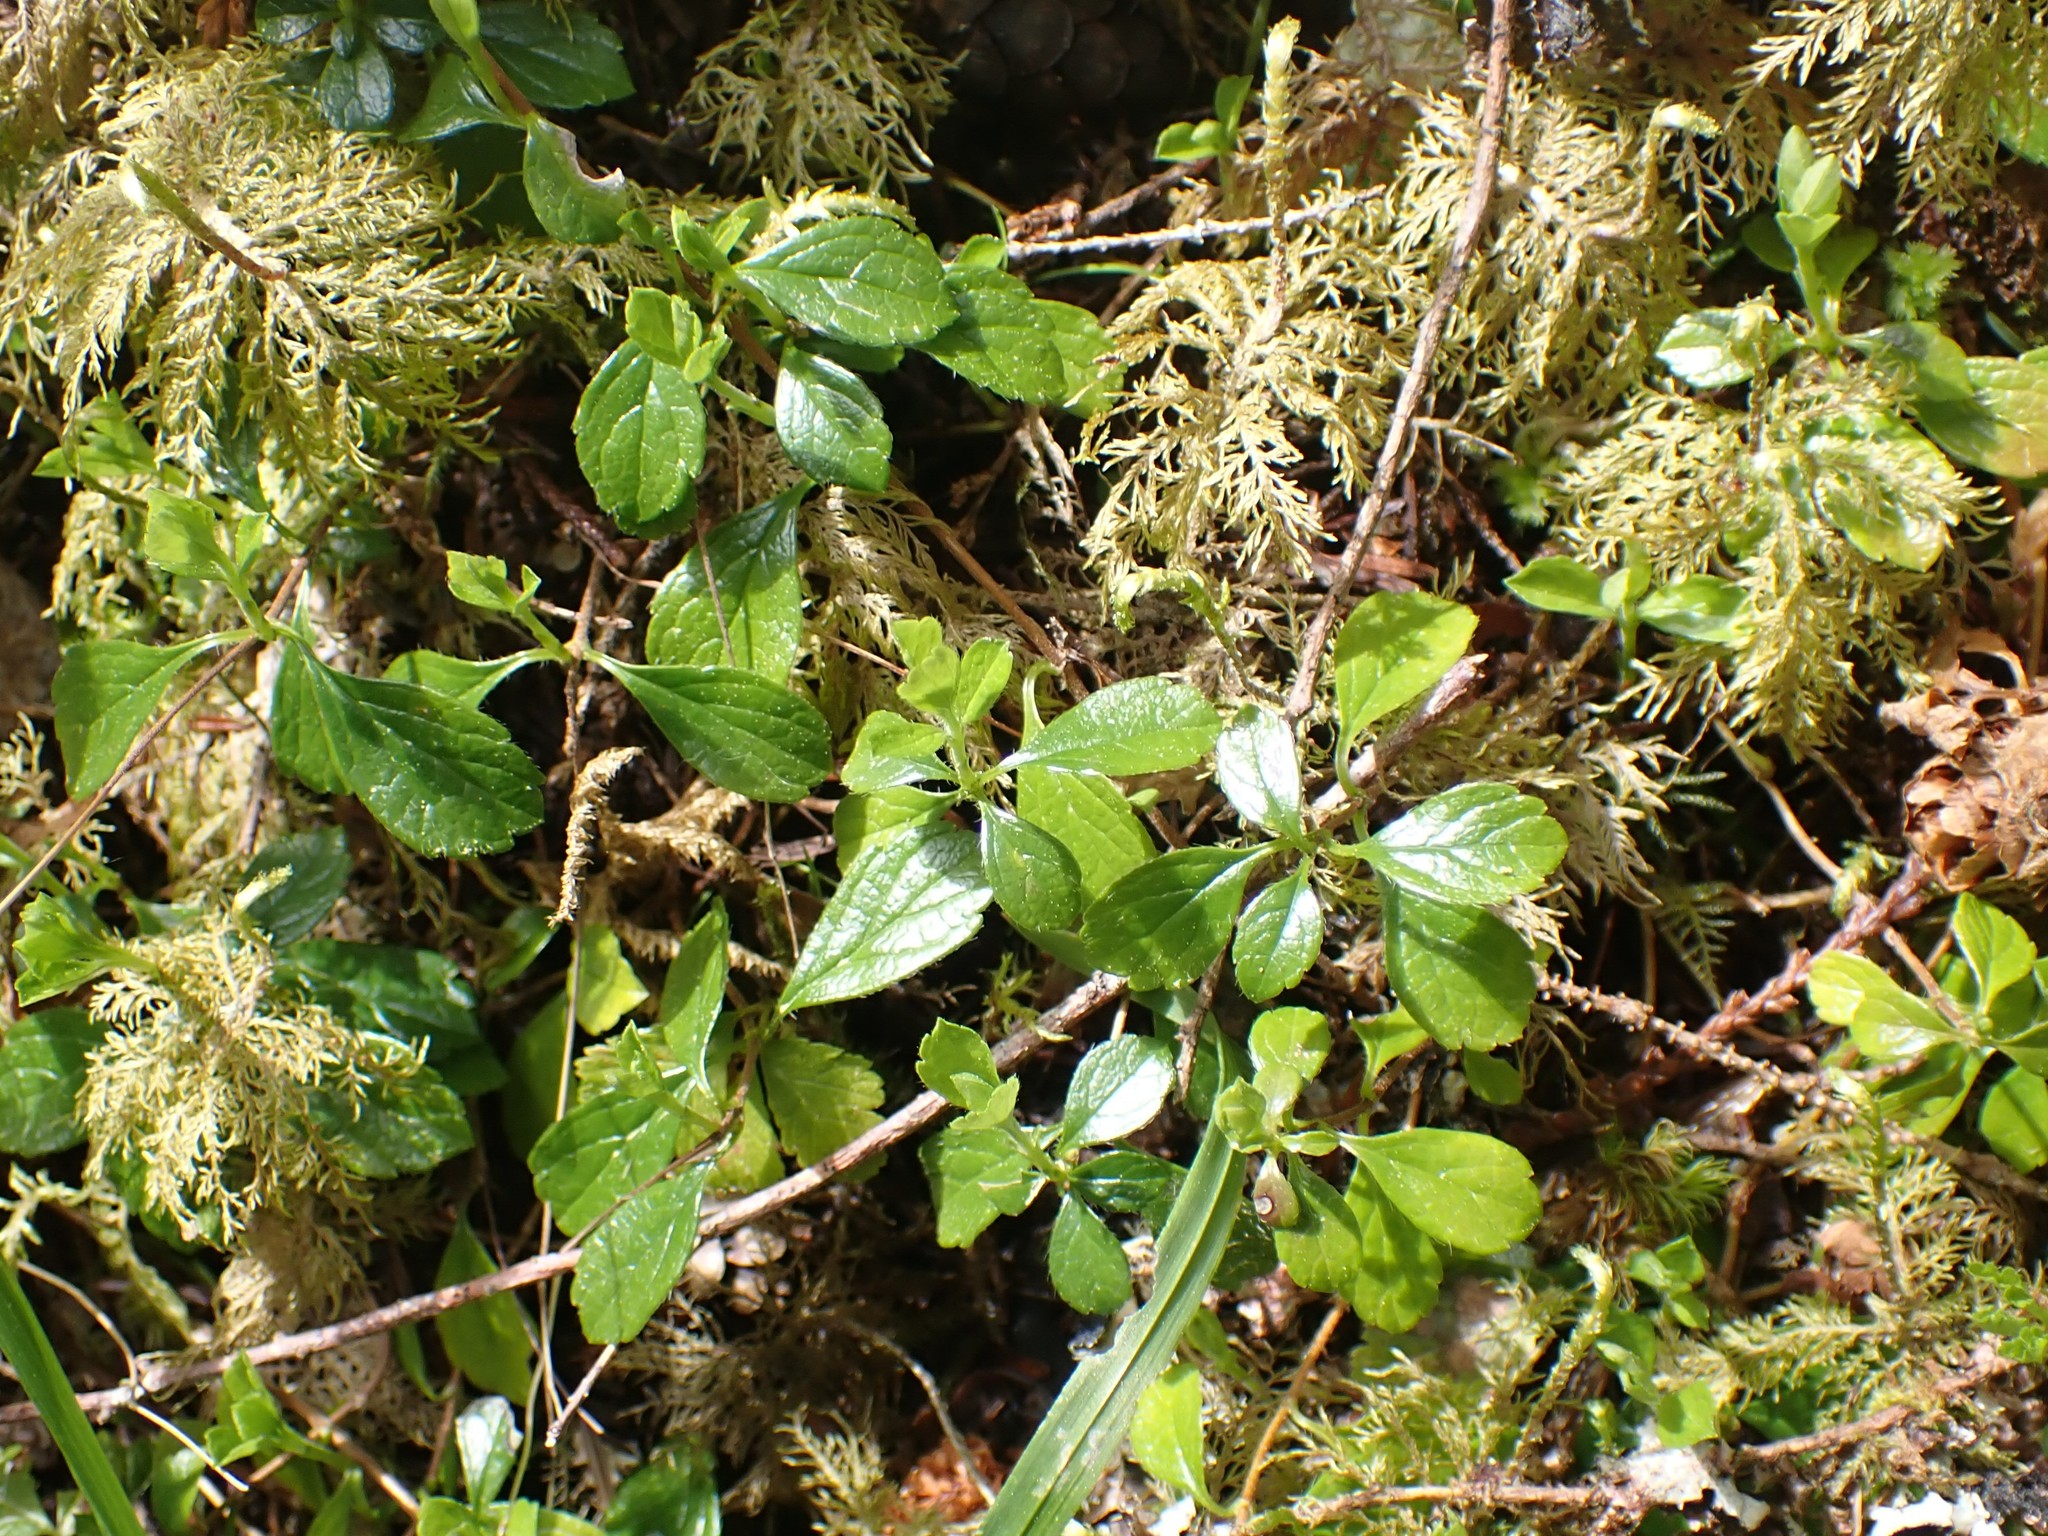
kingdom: Plantae
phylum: Tracheophyta
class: Magnoliopsida
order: Dipsacales
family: Caprifoliaceae
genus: Linnaea
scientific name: Linnaea borealis
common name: Twinflower
